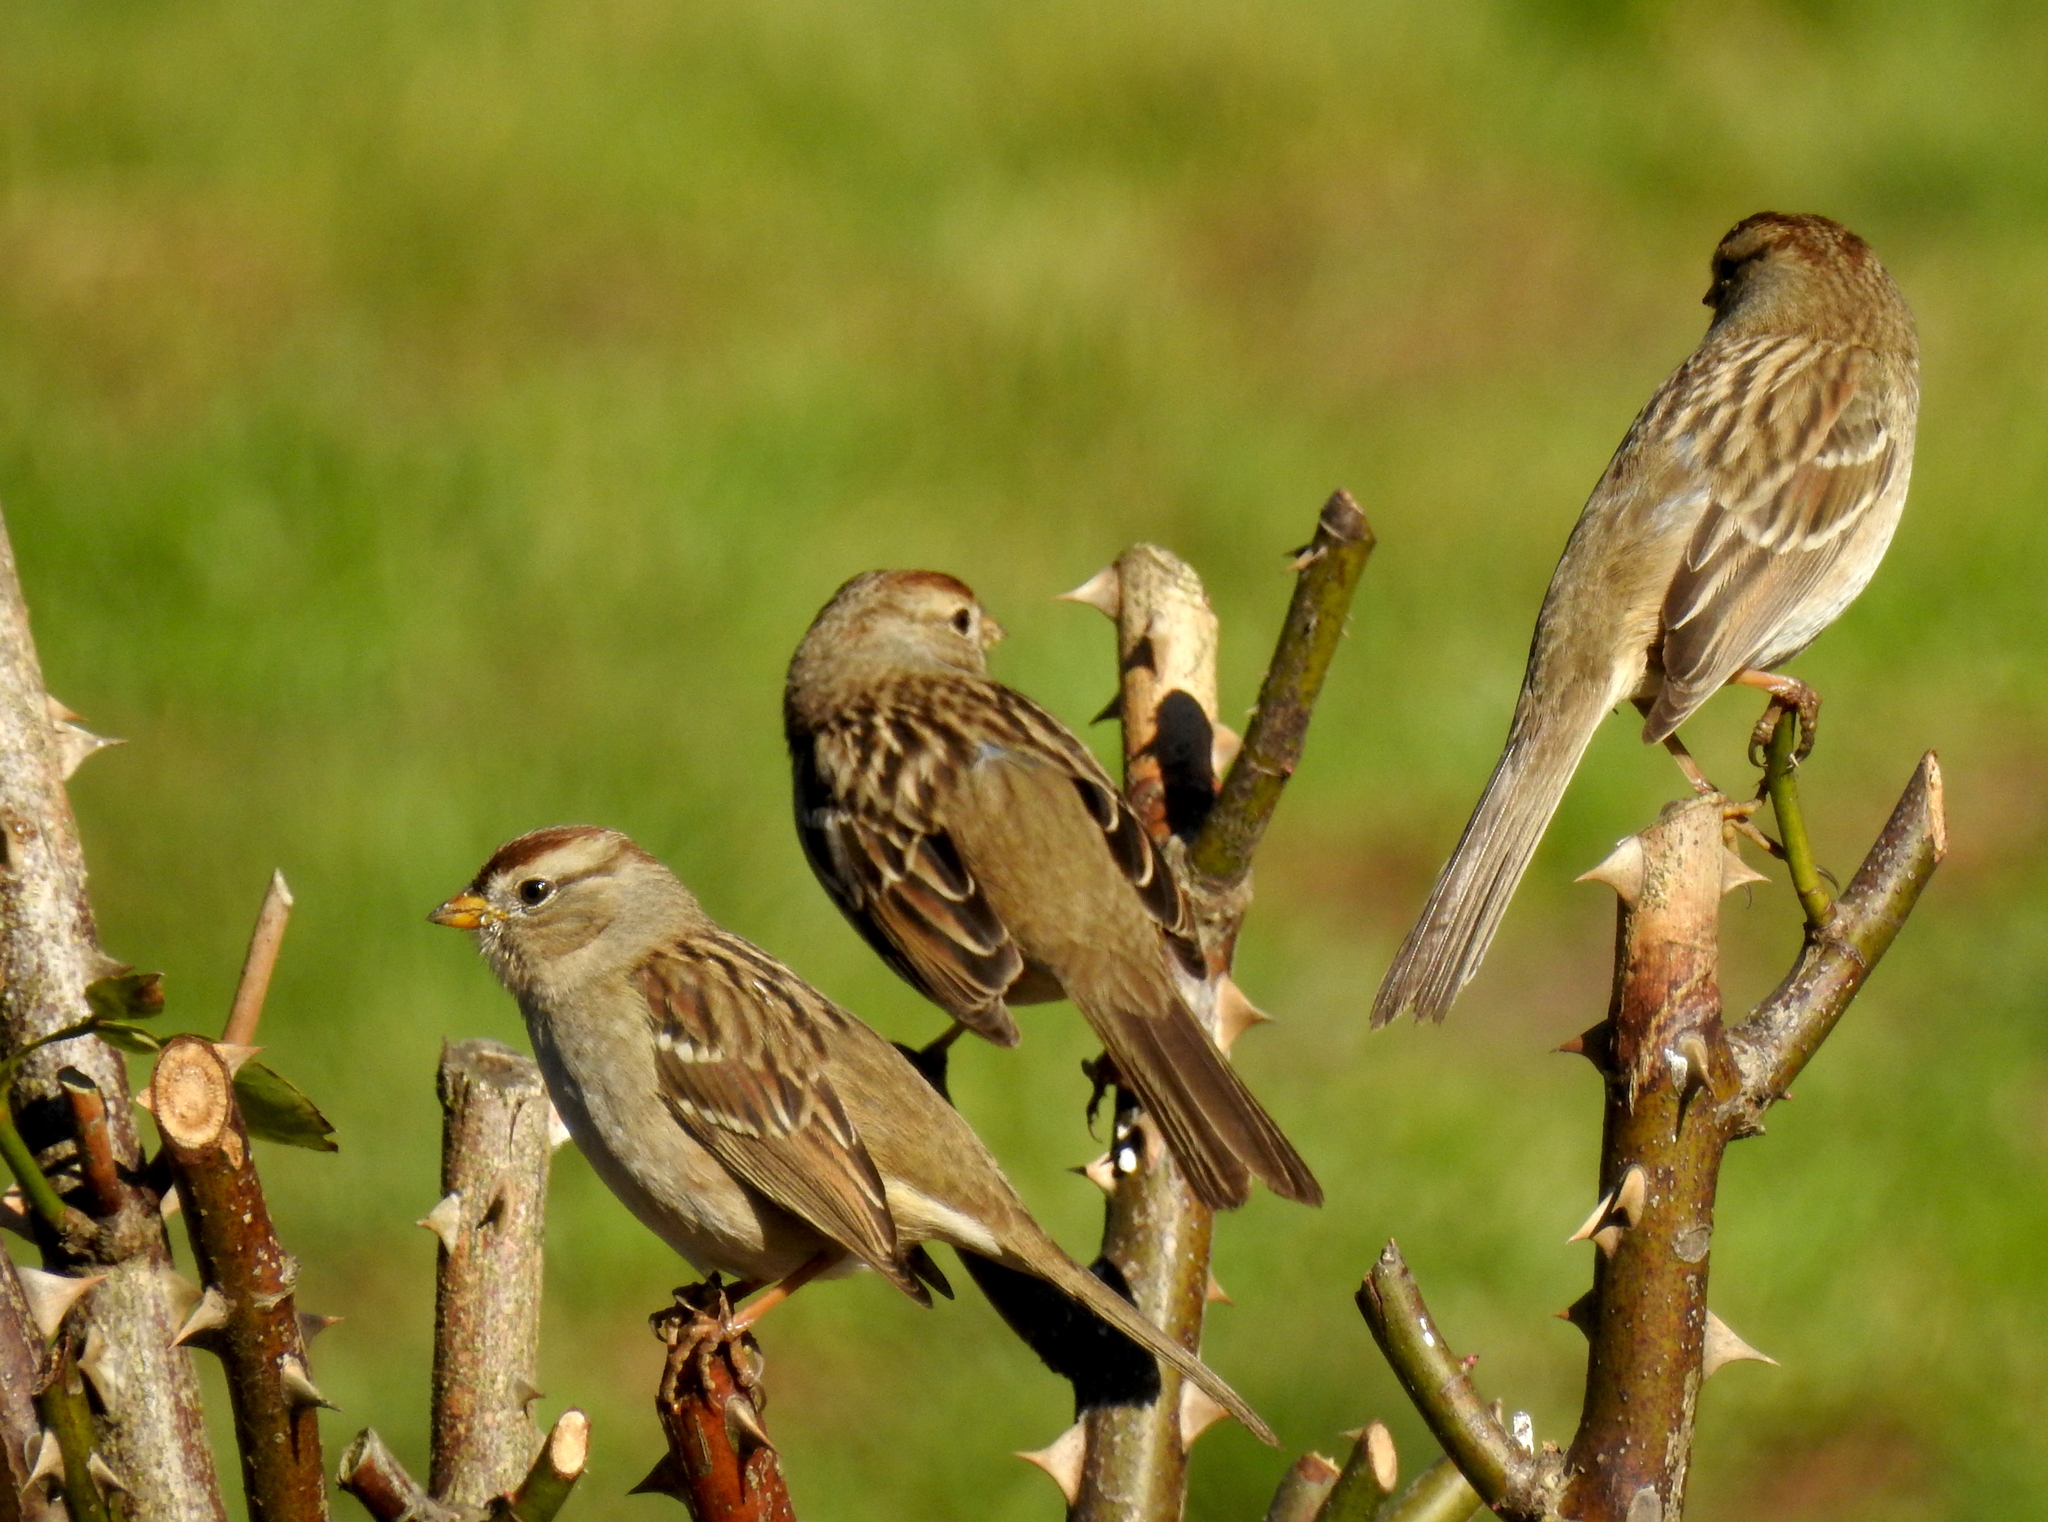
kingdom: Animalia
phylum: Chordata
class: Aves
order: Passeriformes
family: Passerellidae
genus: Zonotrichia
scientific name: Zonotrichia leucophrys
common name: White-crowned sparrow
